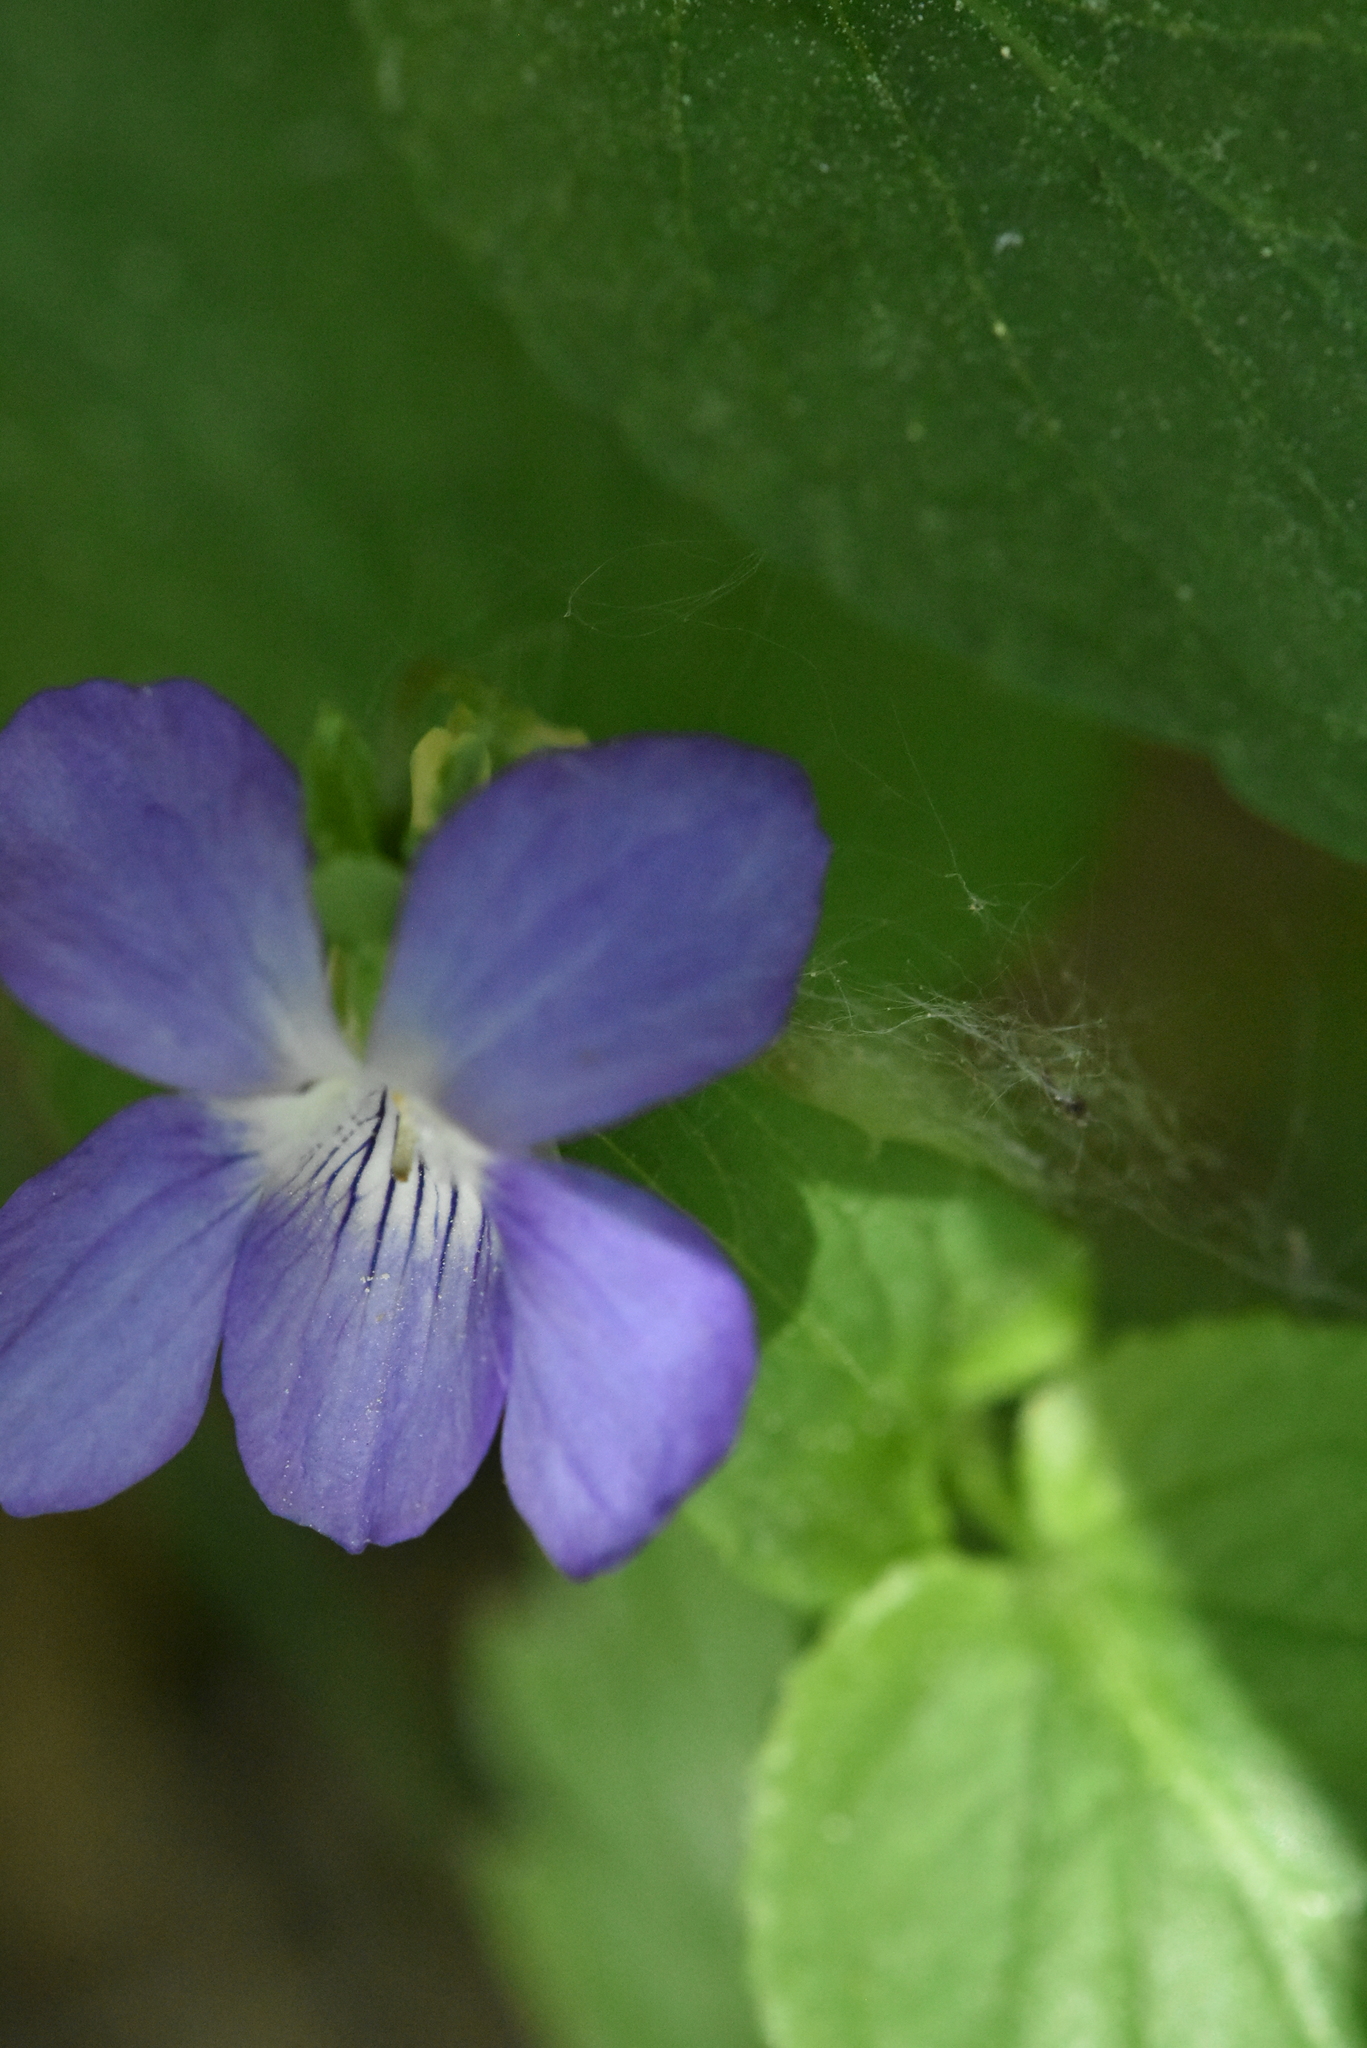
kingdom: Plantae
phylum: Tracheophyta
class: Magnoliopsida
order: Malpighiales
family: Violaceae
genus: Viola
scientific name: Viola canina
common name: Heath dog-violet
